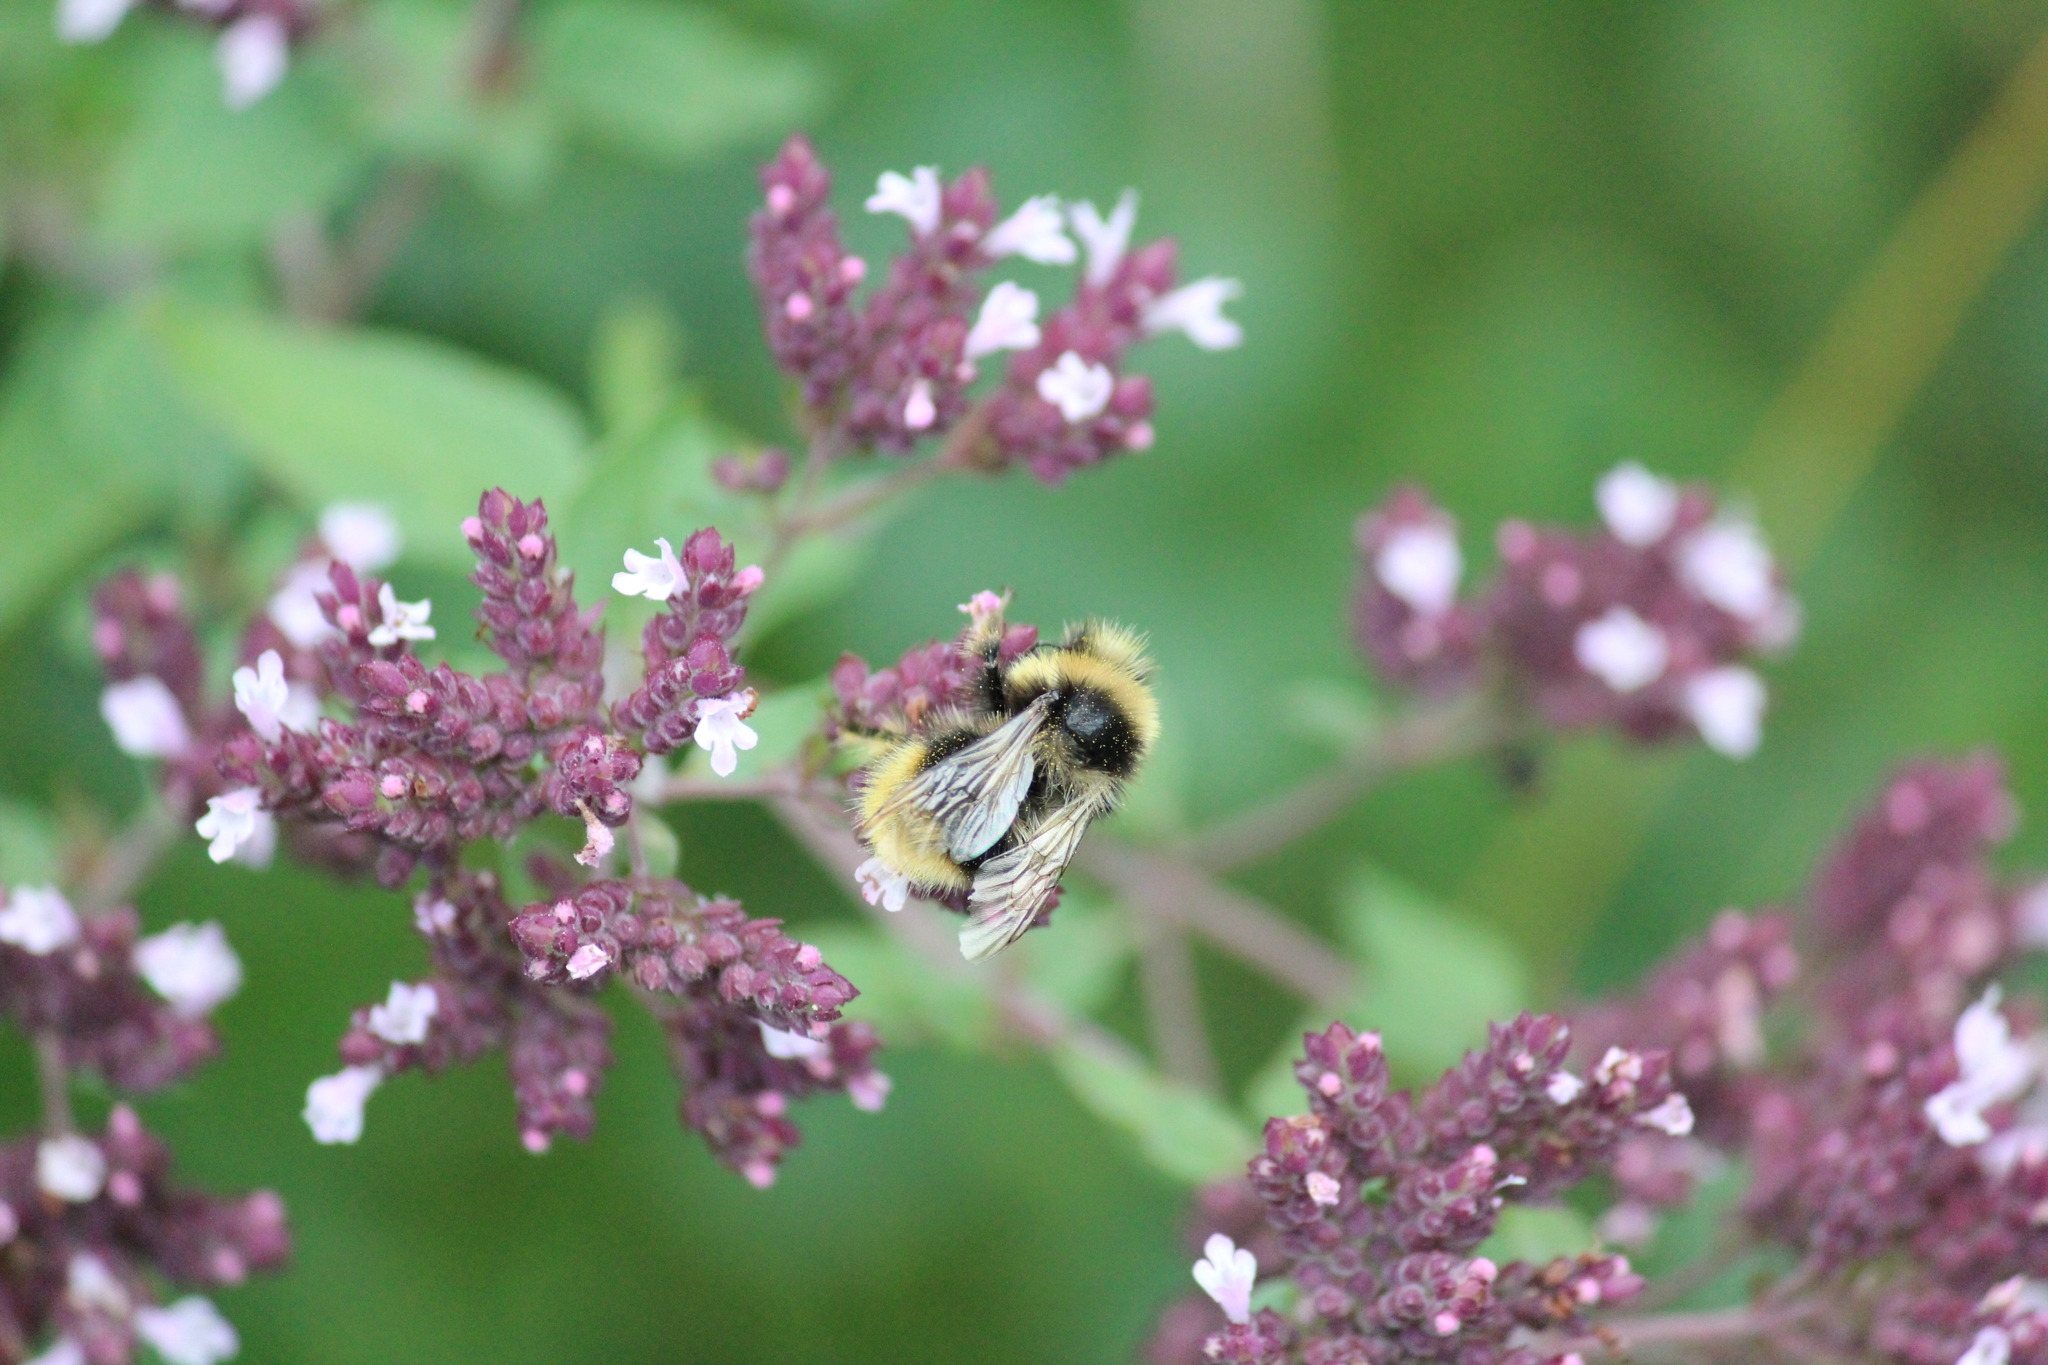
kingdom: Animalia
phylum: Arthropoda
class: Insecta
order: Hymenoptera
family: Apidae
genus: Bombus
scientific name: Bombus sichelii
